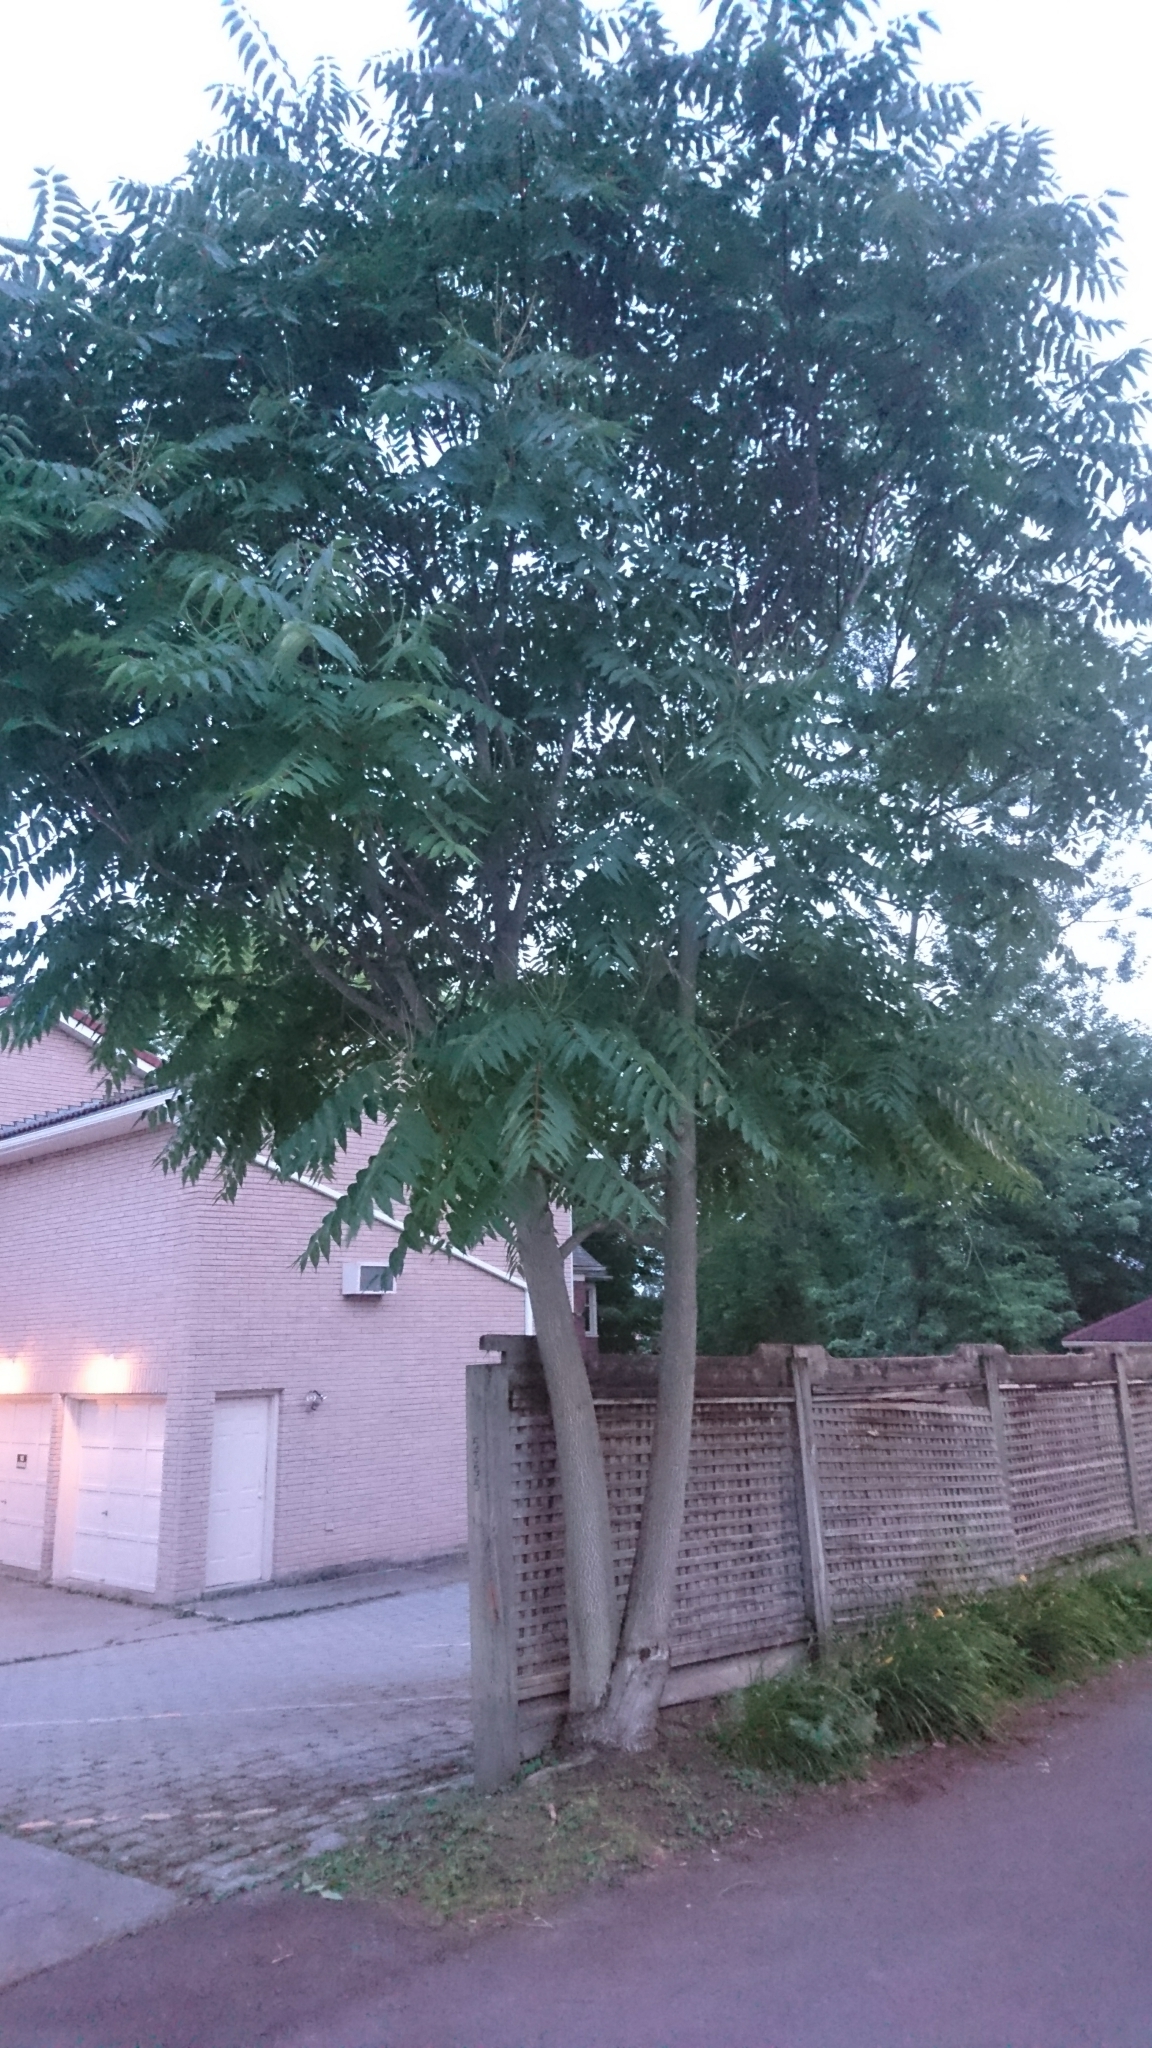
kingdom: Plantae
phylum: Tracheophyta
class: Magnoliopsida
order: Sapindales
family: Simaroubaceae
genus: Ailanthus
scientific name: Ailanthus altissima
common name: Tree-of-heaven
